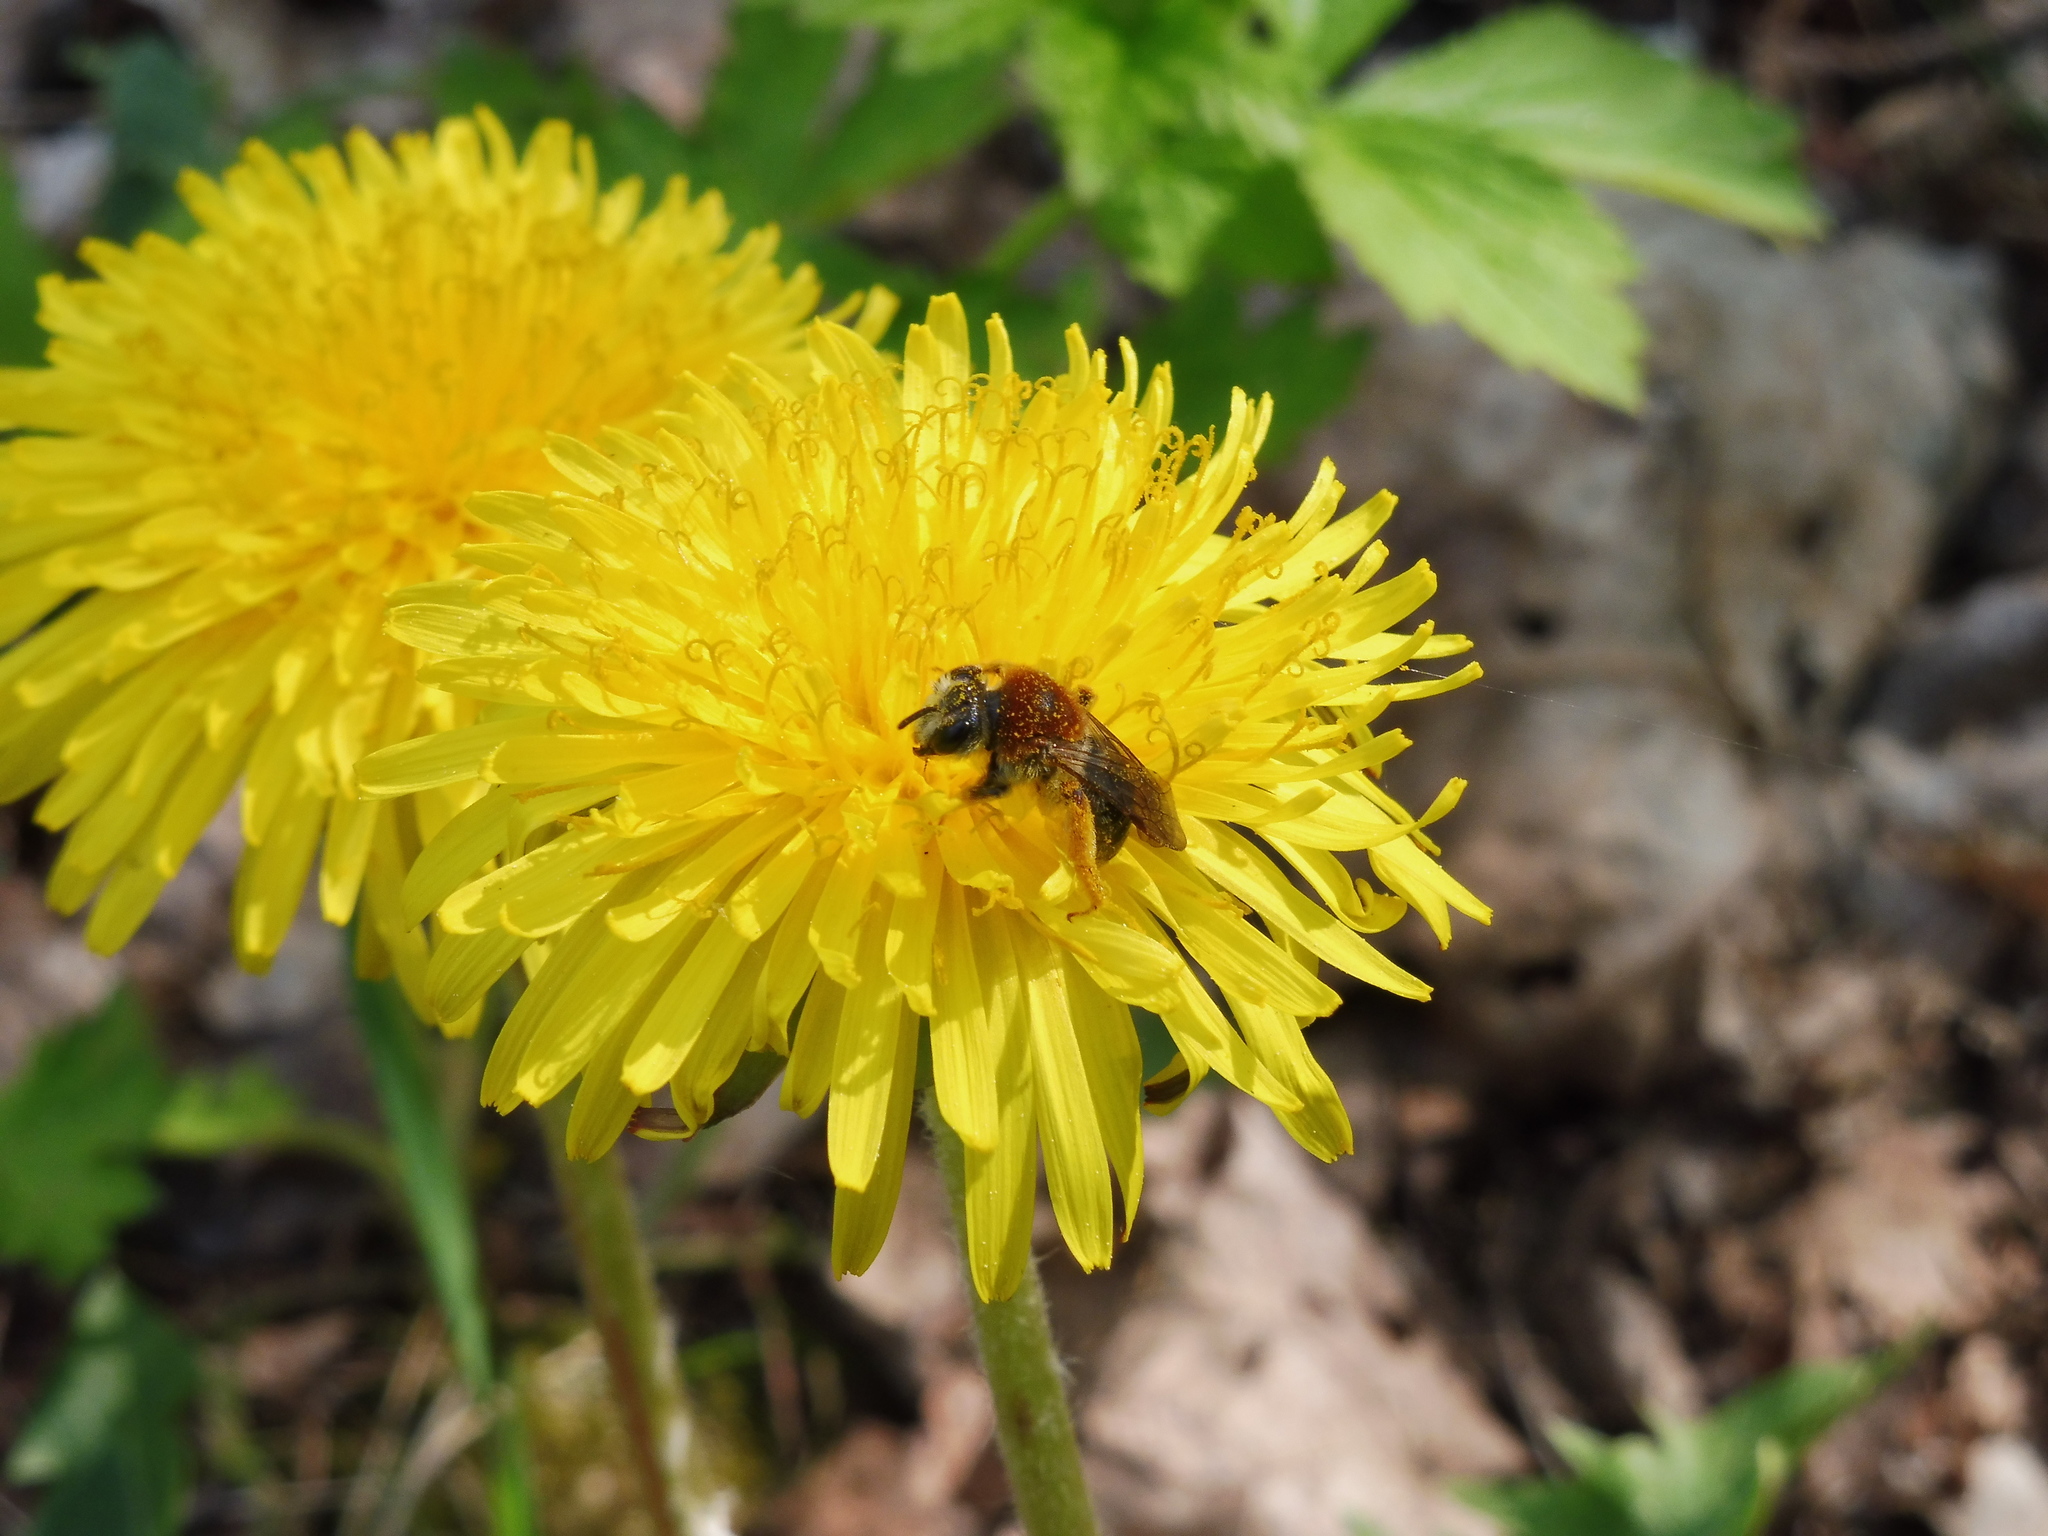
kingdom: Animalia
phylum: Arthropoda
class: Insecta
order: Hymenoptera
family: Andrenidae
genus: Andrena
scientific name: Andrena haemorrhoa
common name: Early mining bee
